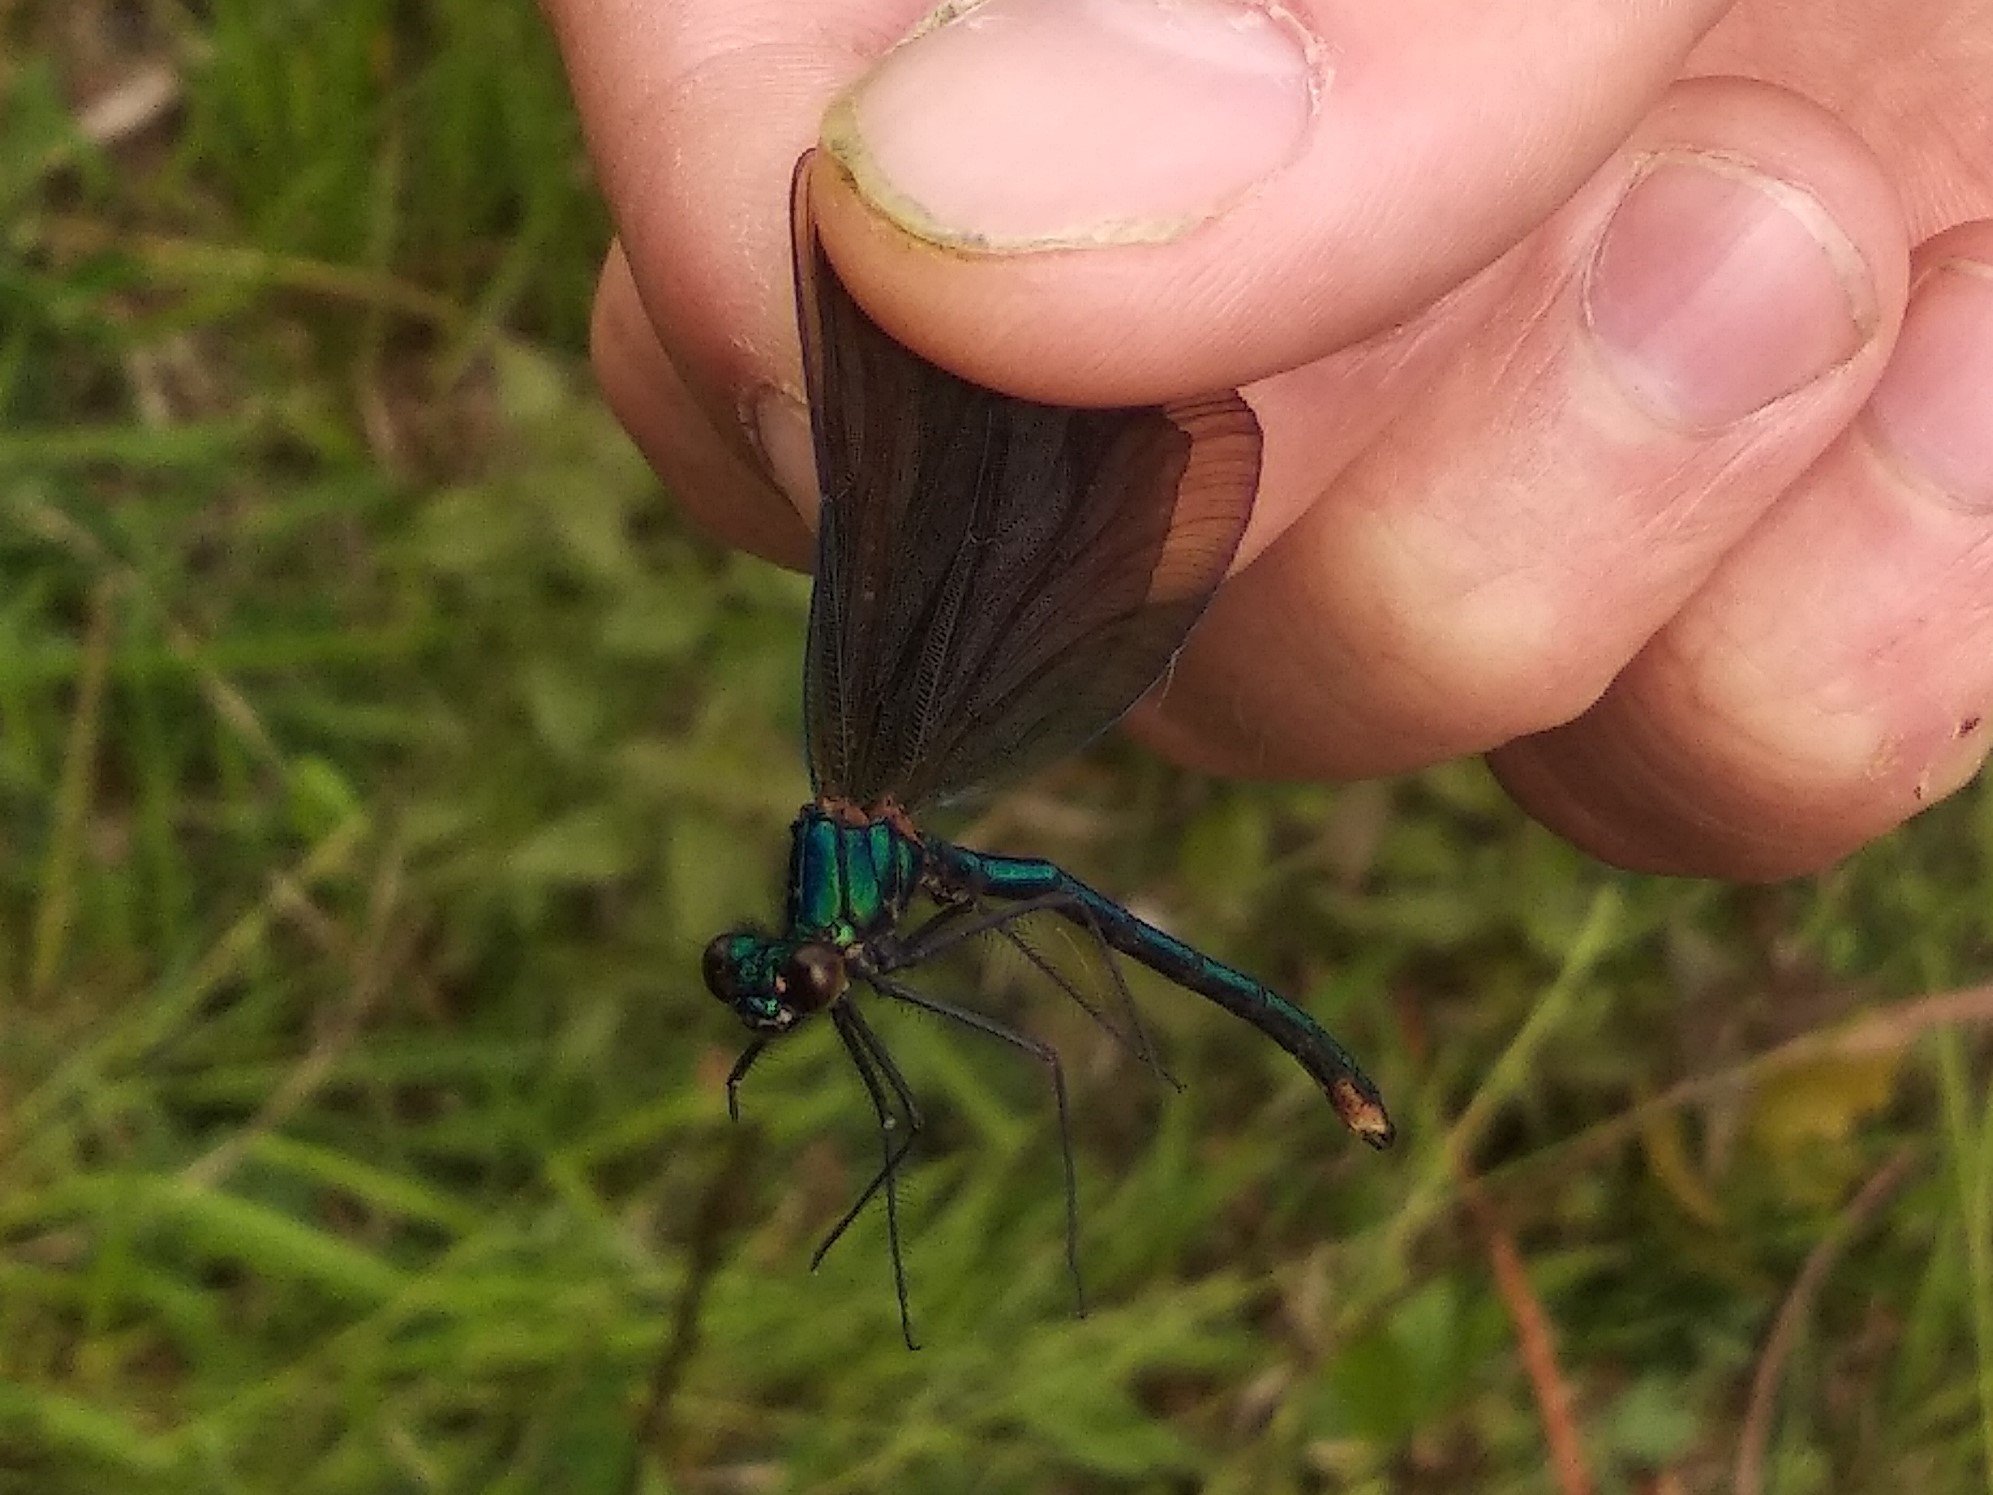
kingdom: Animalia
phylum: Arthropoda
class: Insecta
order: Odonata
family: Calopterygidae
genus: Calopteryx
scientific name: Calopteryx virgo
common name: Beautiful demoiselle
